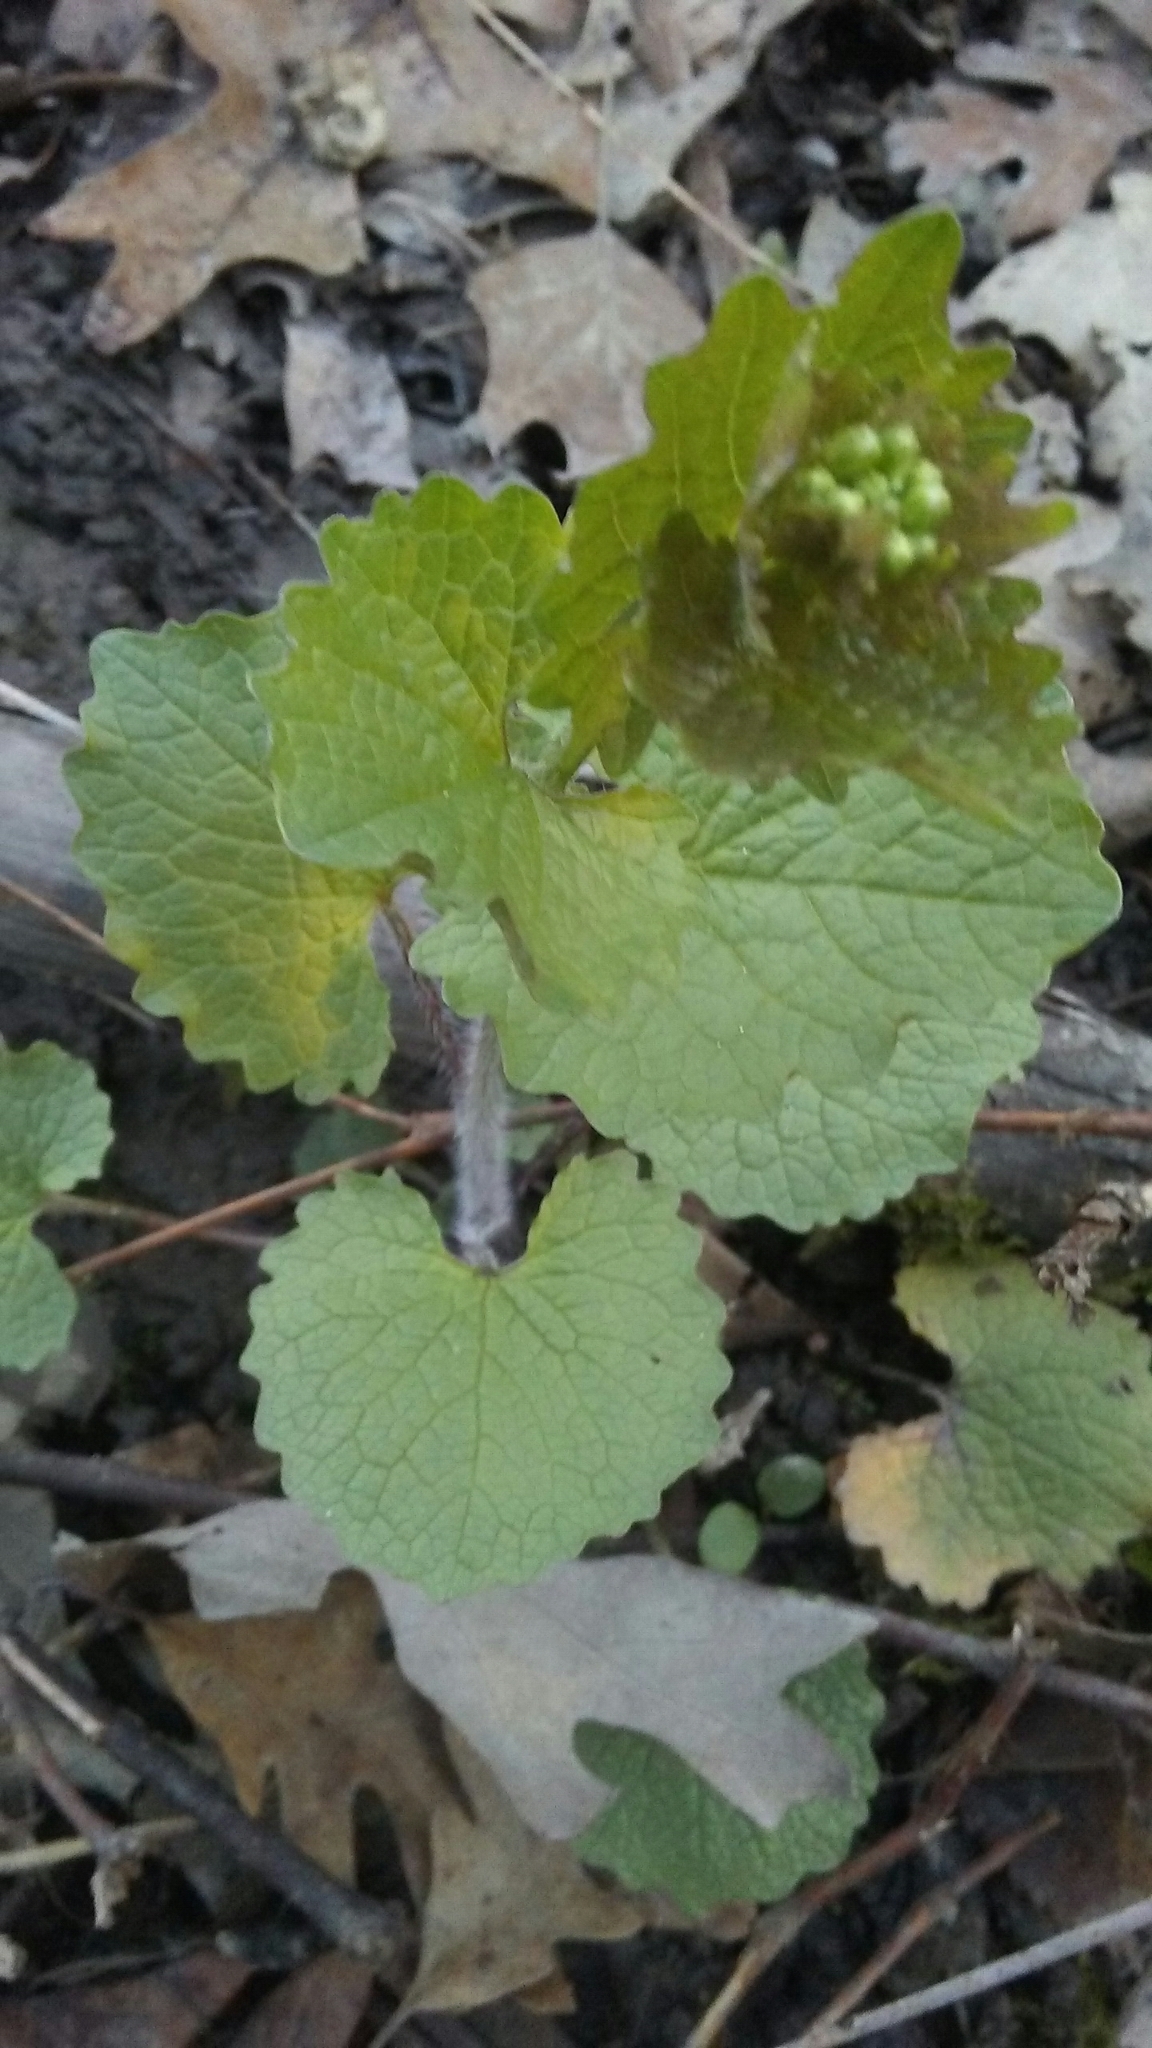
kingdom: Plantae
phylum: Tracheophyta
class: Magnoliopsida
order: Brassicales
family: Brassicaceae
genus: Alliaria
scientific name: Alliaria petiolata
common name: Garlic mustard
